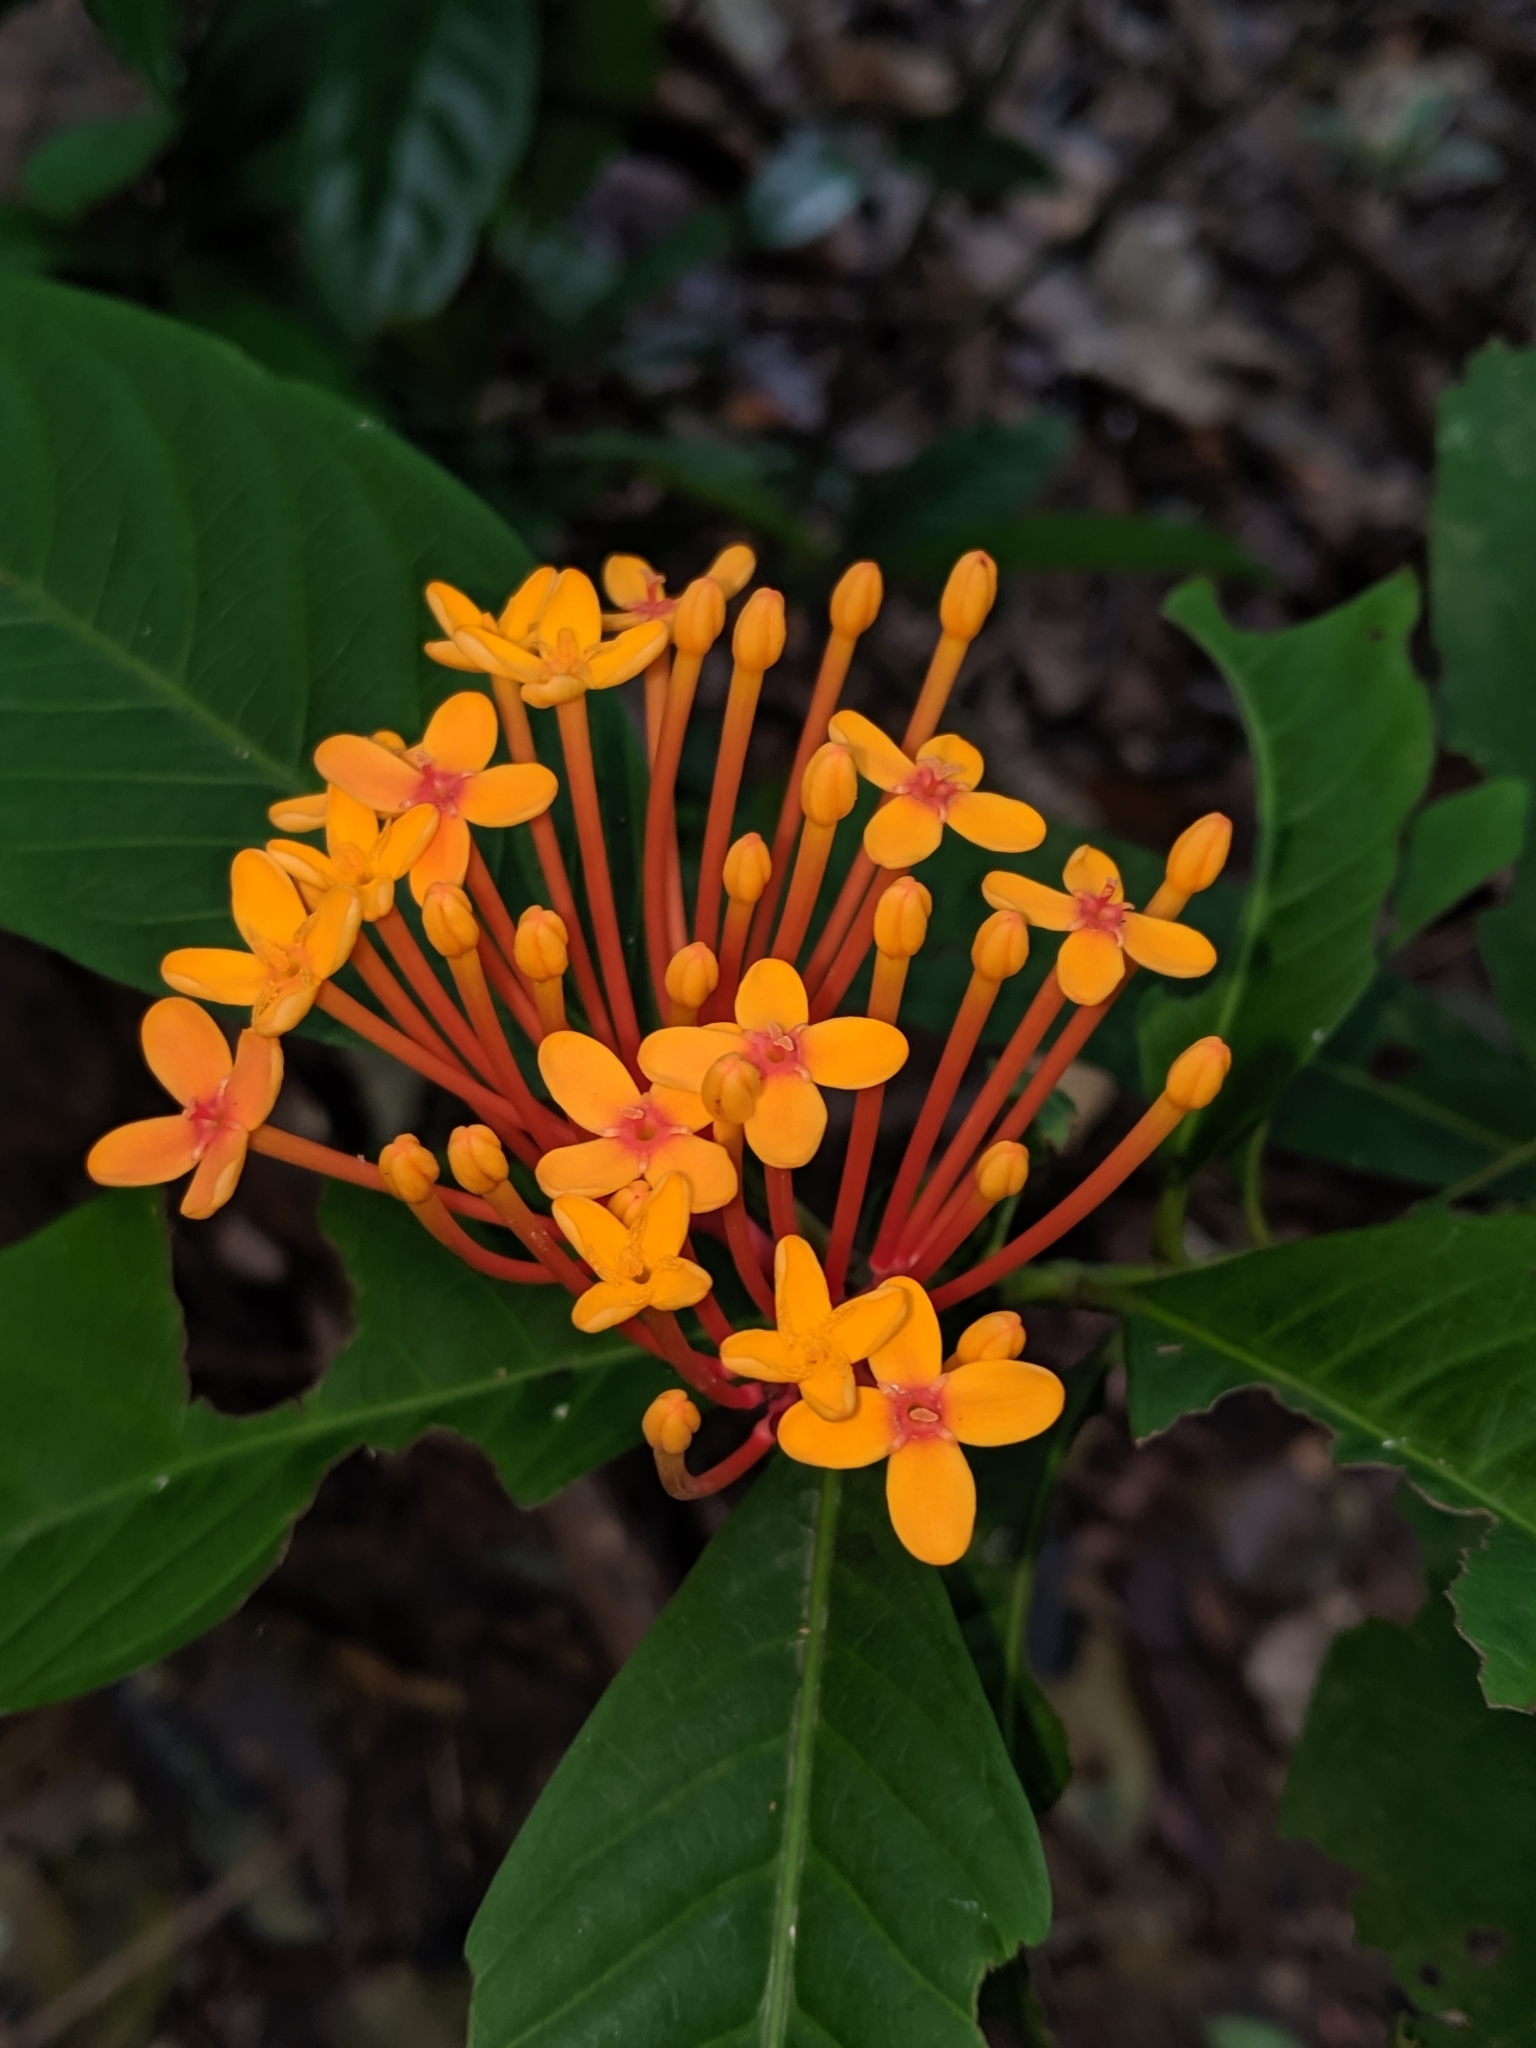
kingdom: Plantae
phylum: Tracheophyta
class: Magnoliopsida
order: Gentianales
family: Rubiaceae
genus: Ixora
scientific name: Ixora congesta
